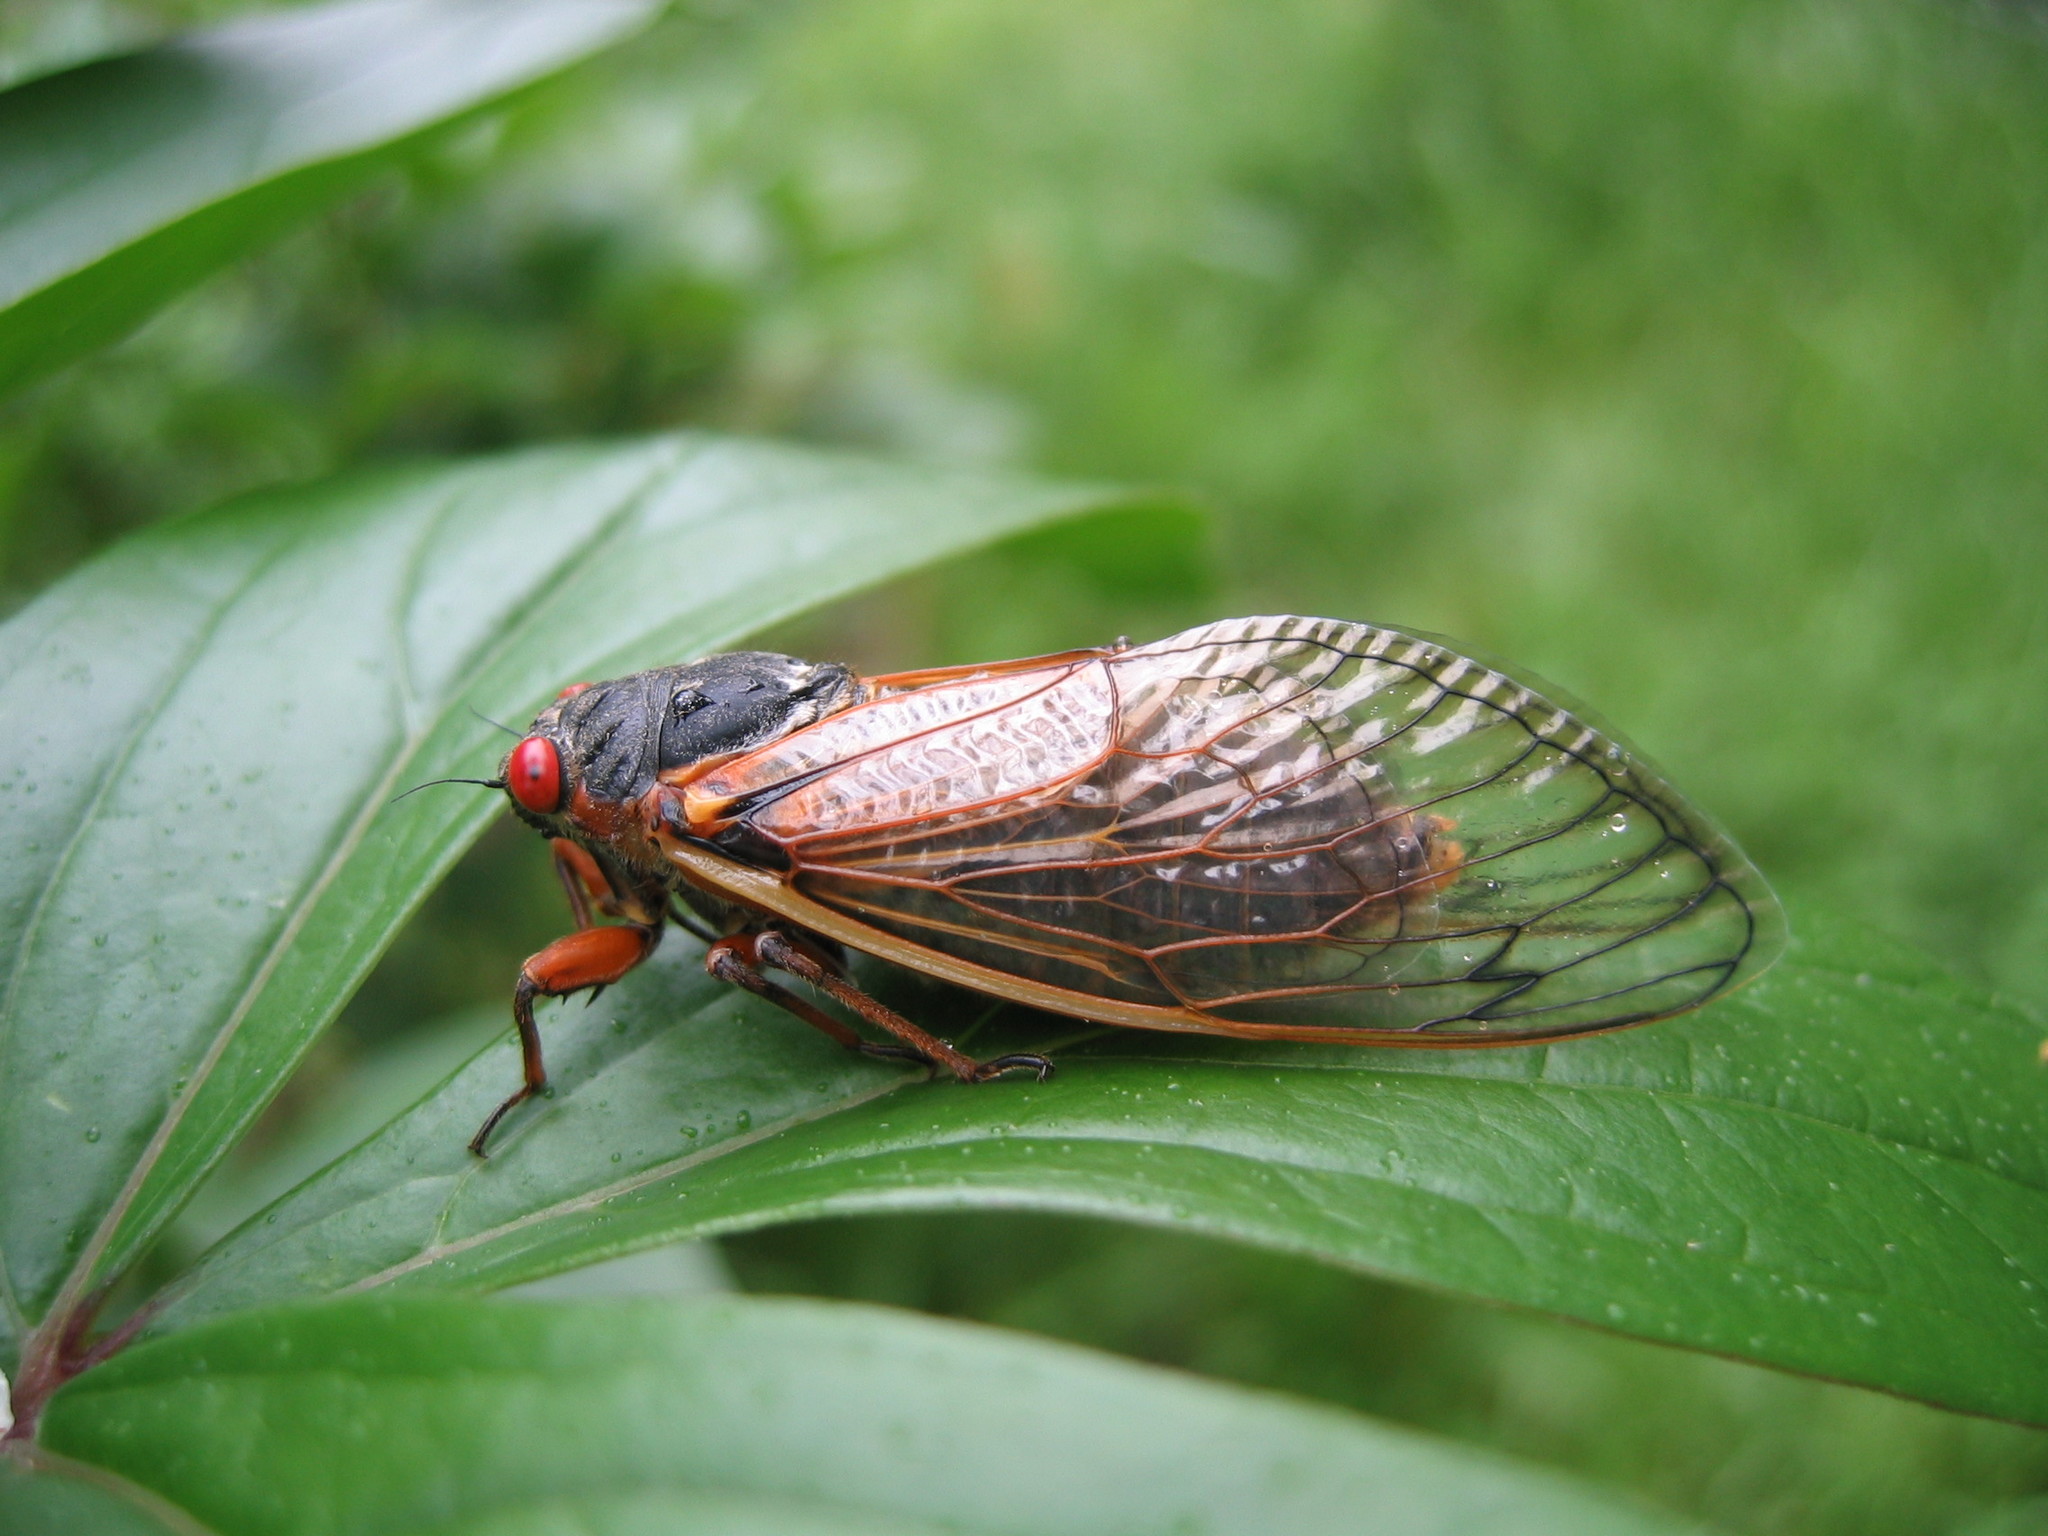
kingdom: Animalia
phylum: Arthropoda
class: Insecta
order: Hemiptera
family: Cicadidae
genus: Magicicada
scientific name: Magicicada septendecim
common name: Periodical cicada
